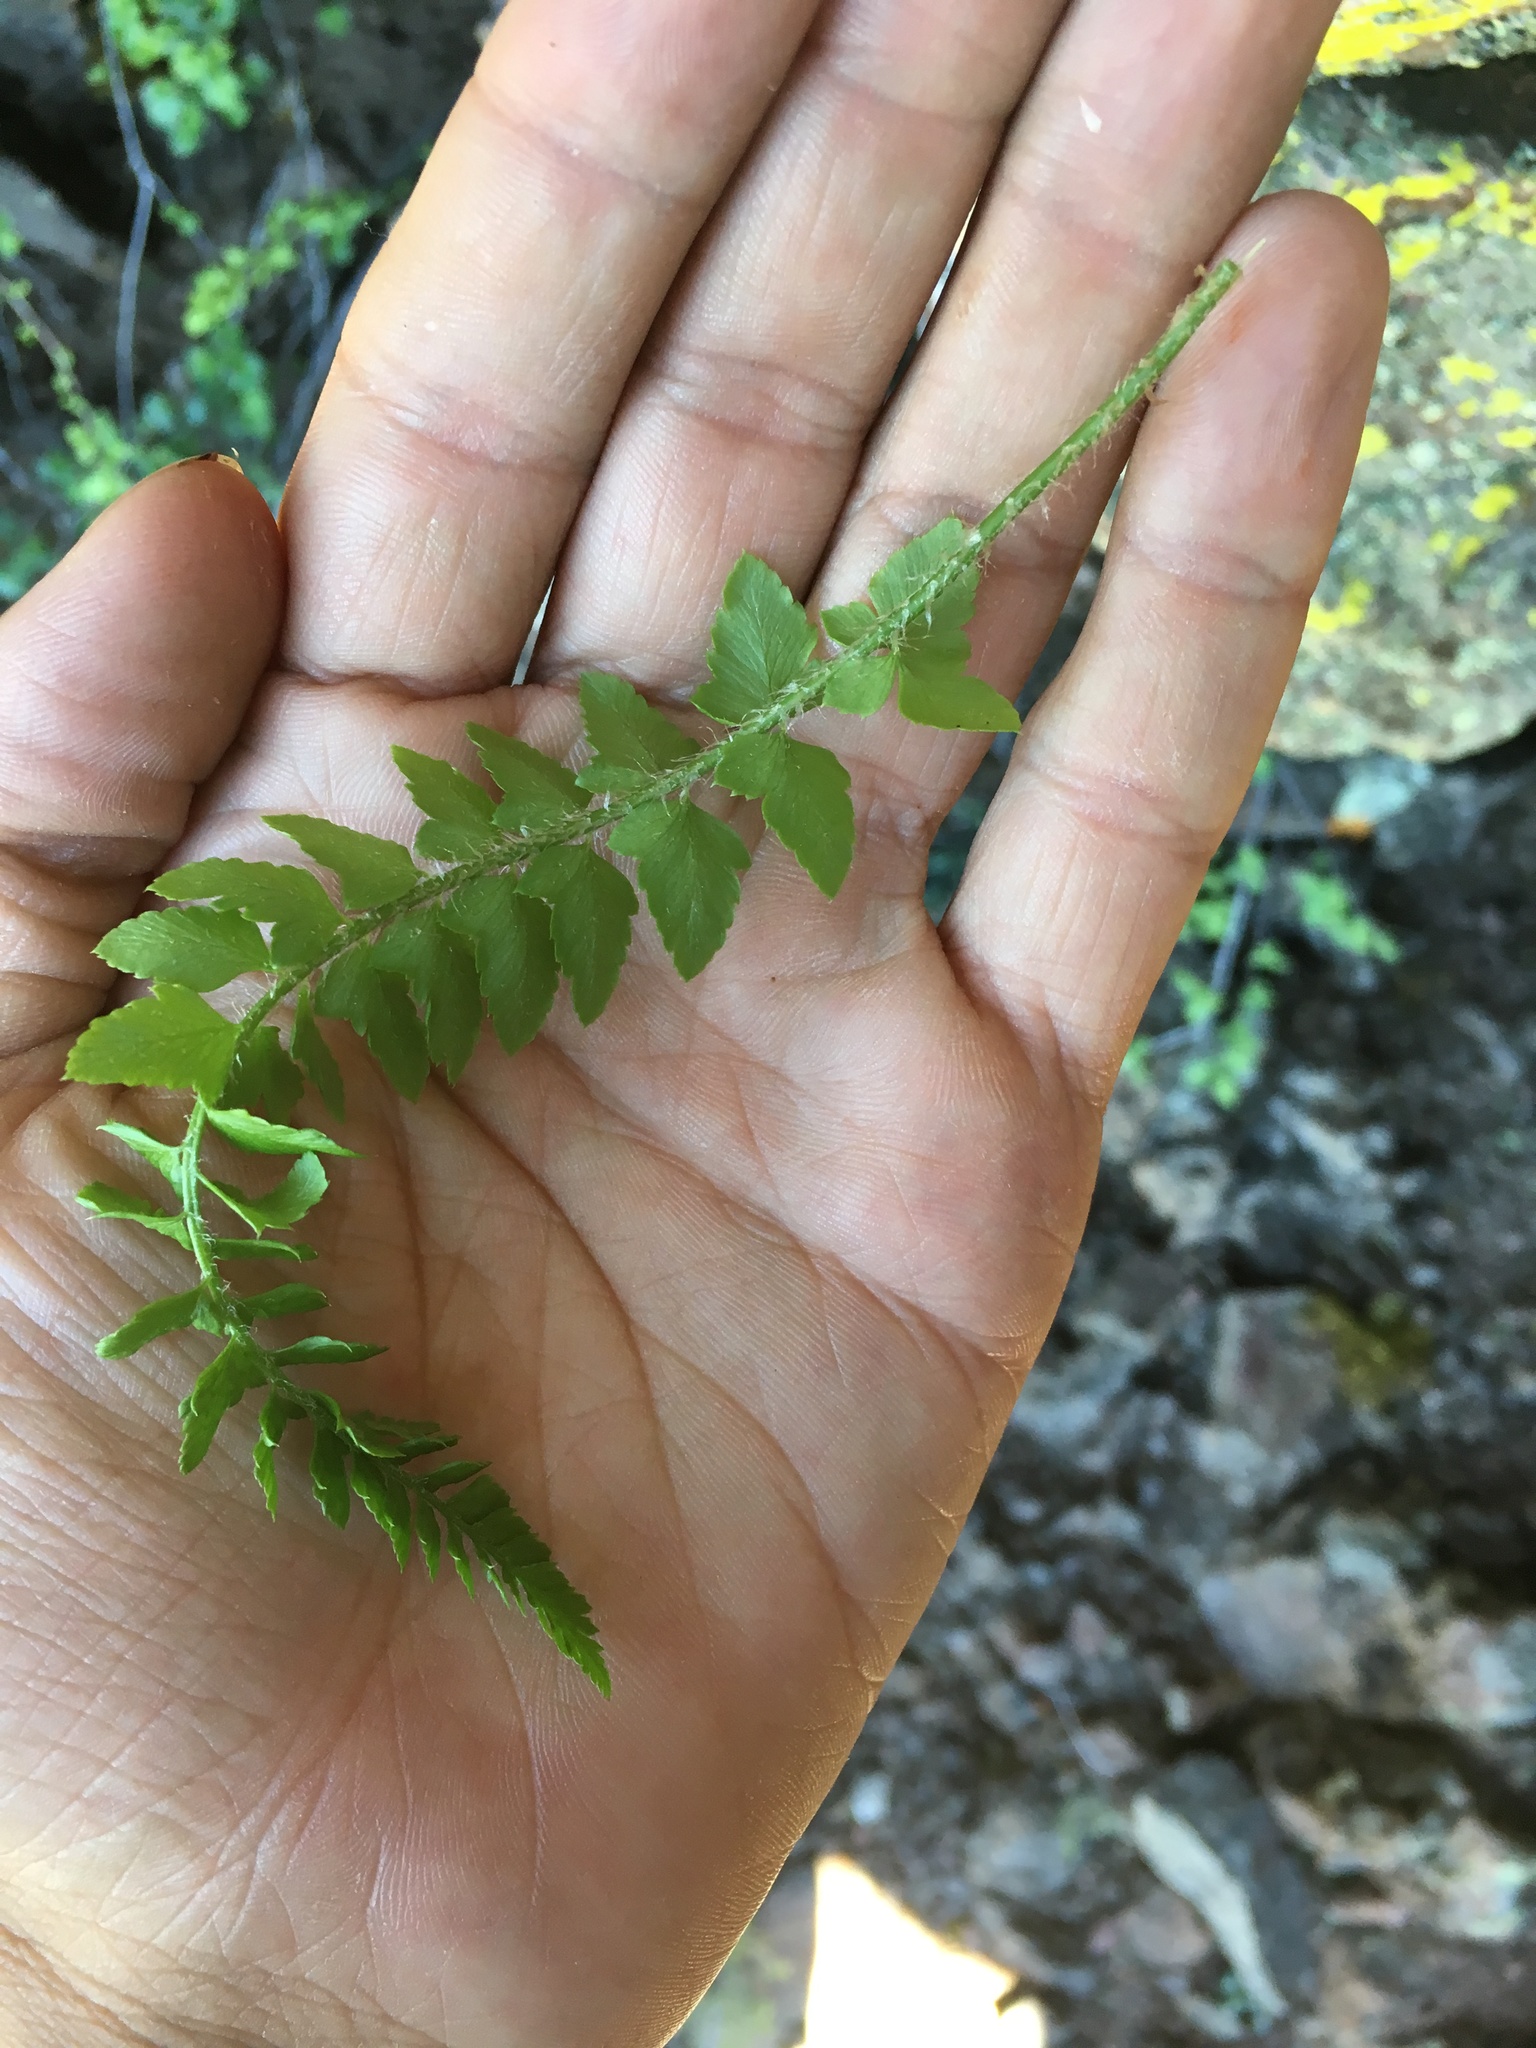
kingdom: Plantae
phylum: Tracheophyta
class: Polypodiopsida
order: Polypodiales
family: Dryopteridaceae
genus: Polystichum
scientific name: Polystichum scopulinum
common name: Eaton's shield fern
